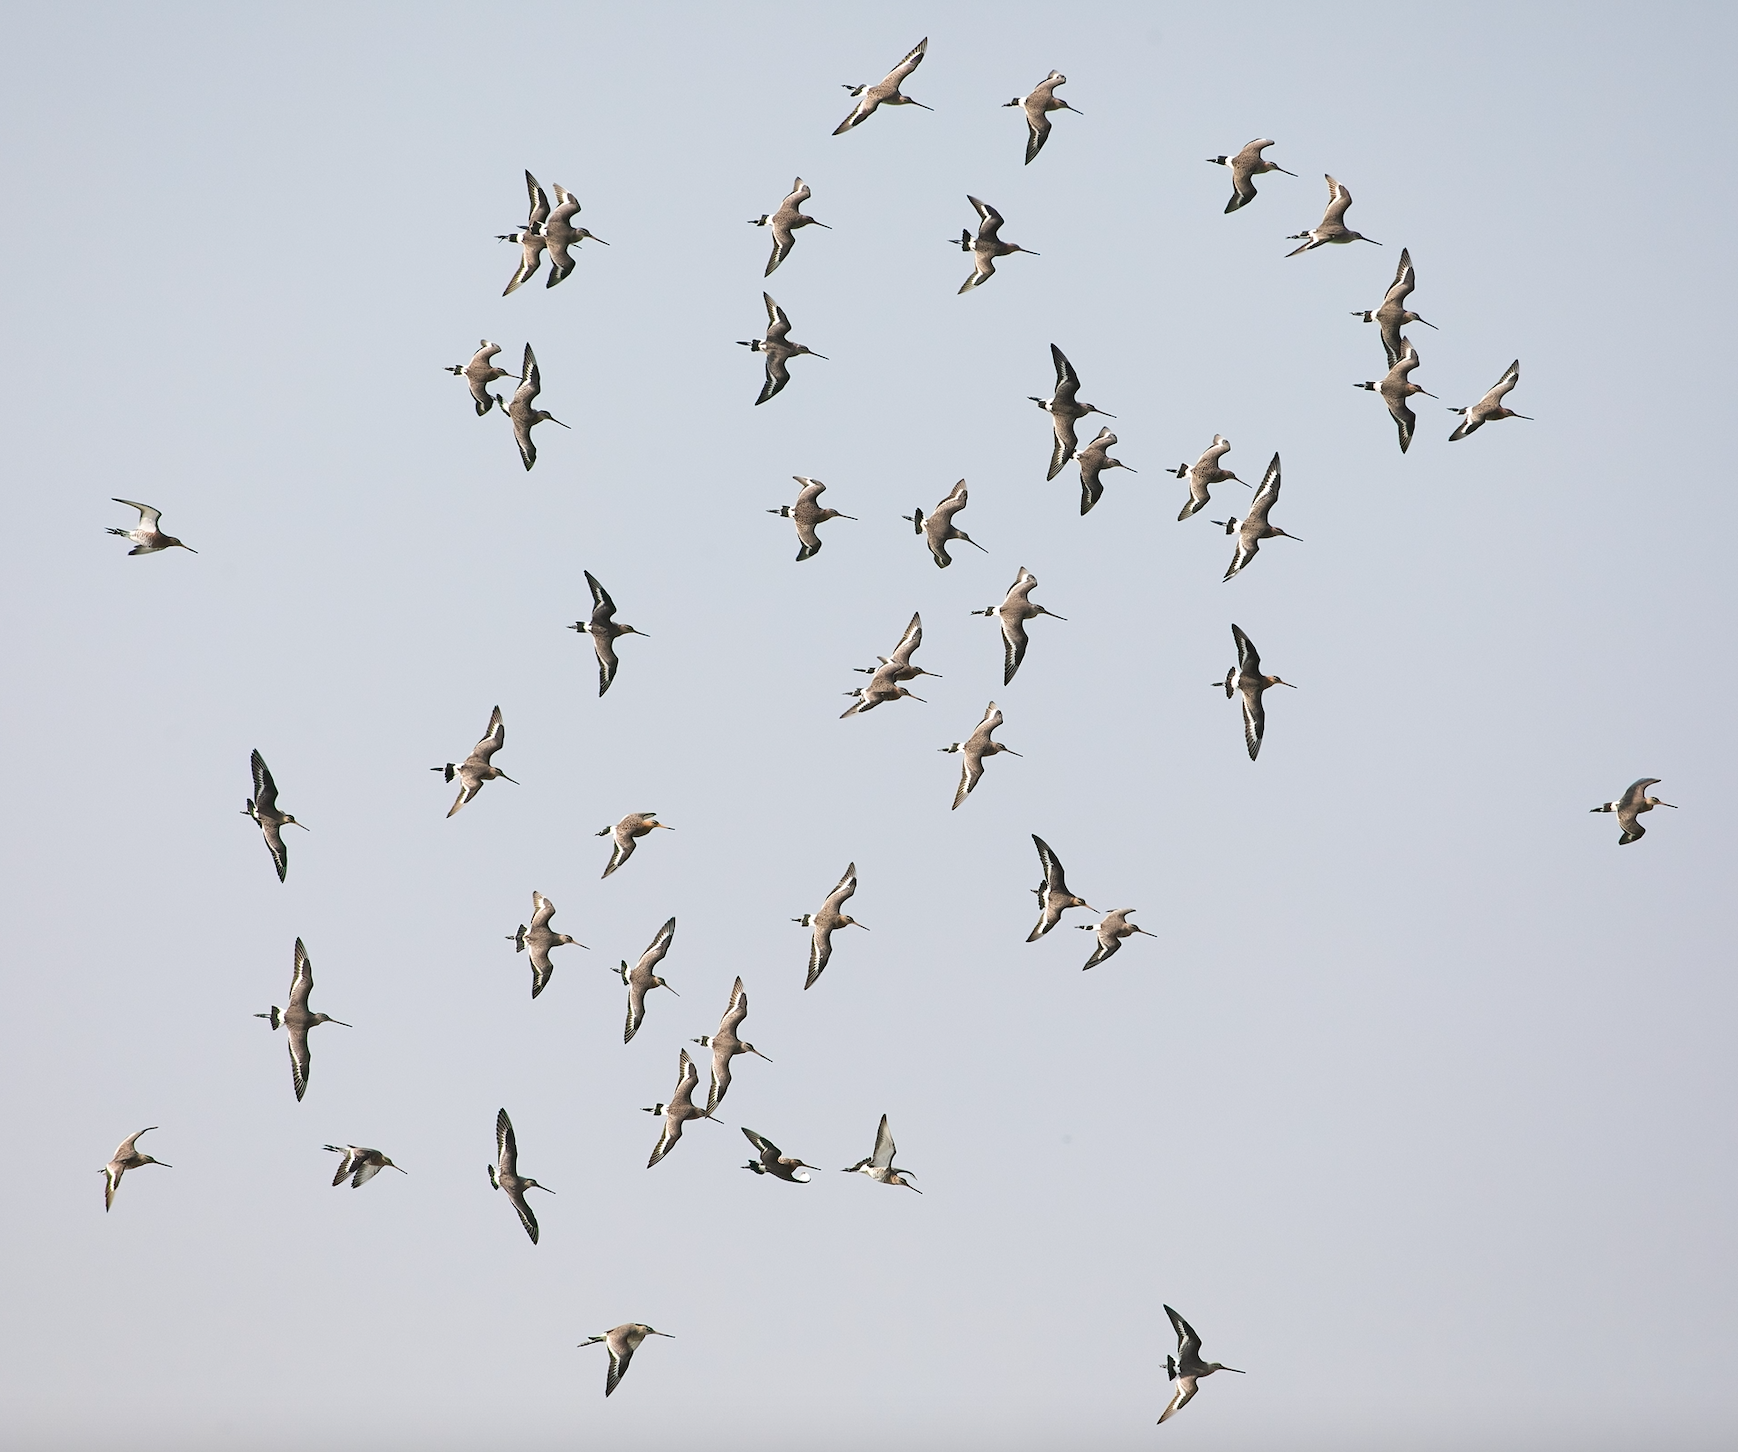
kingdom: Animalia
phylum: Chordata
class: Aves
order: Charadriiformes
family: Scolopacidae
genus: Limosa
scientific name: Limosa limosa
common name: Black-tailed godwit
